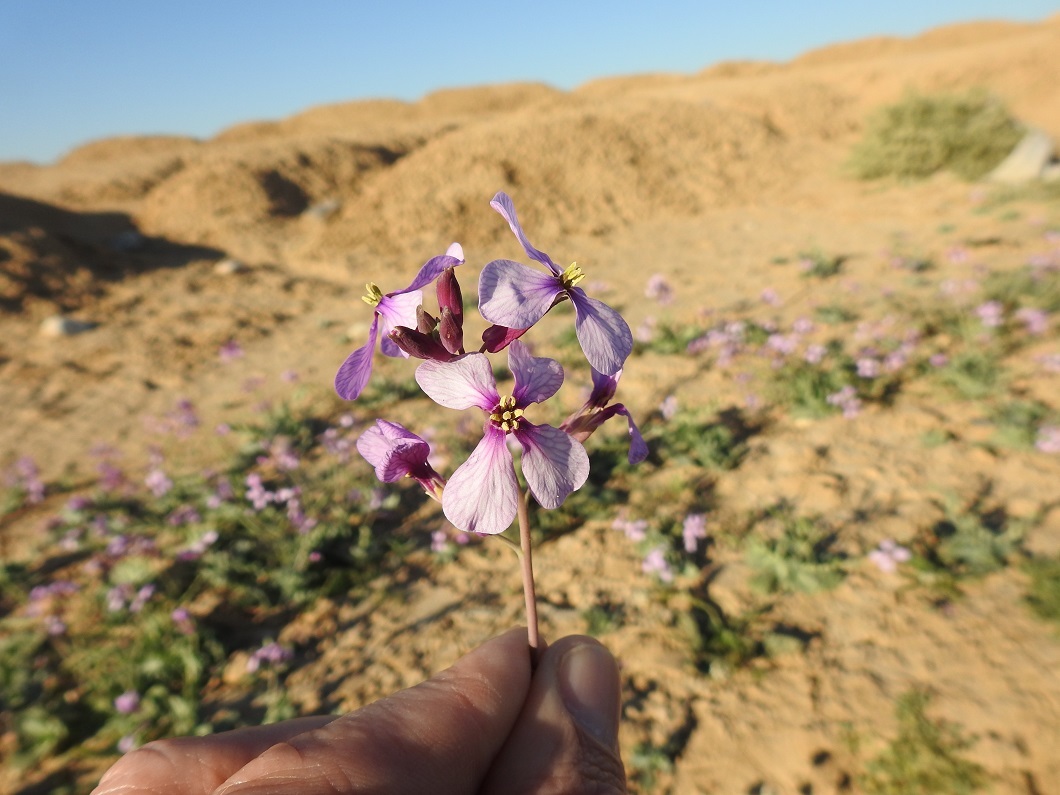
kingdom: Plantae
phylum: Tracheophyta
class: Magnoliopsida
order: Brassicales
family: Brassicaceae
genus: Moricandia
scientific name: Moricandia suffruticosa
